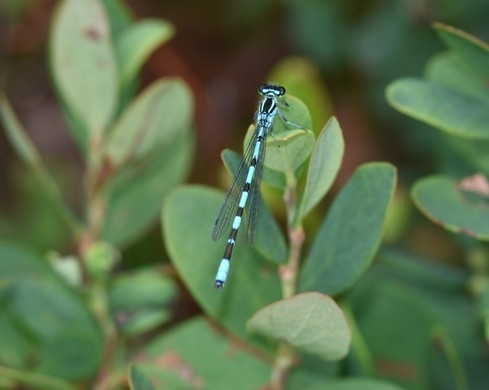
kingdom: Animalia
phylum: Arthropoda
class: Insecta
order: Odonata
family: Coenagrionidae
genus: Coenagrion
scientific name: Coenagrion hastulatum
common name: Spearhead bluet
